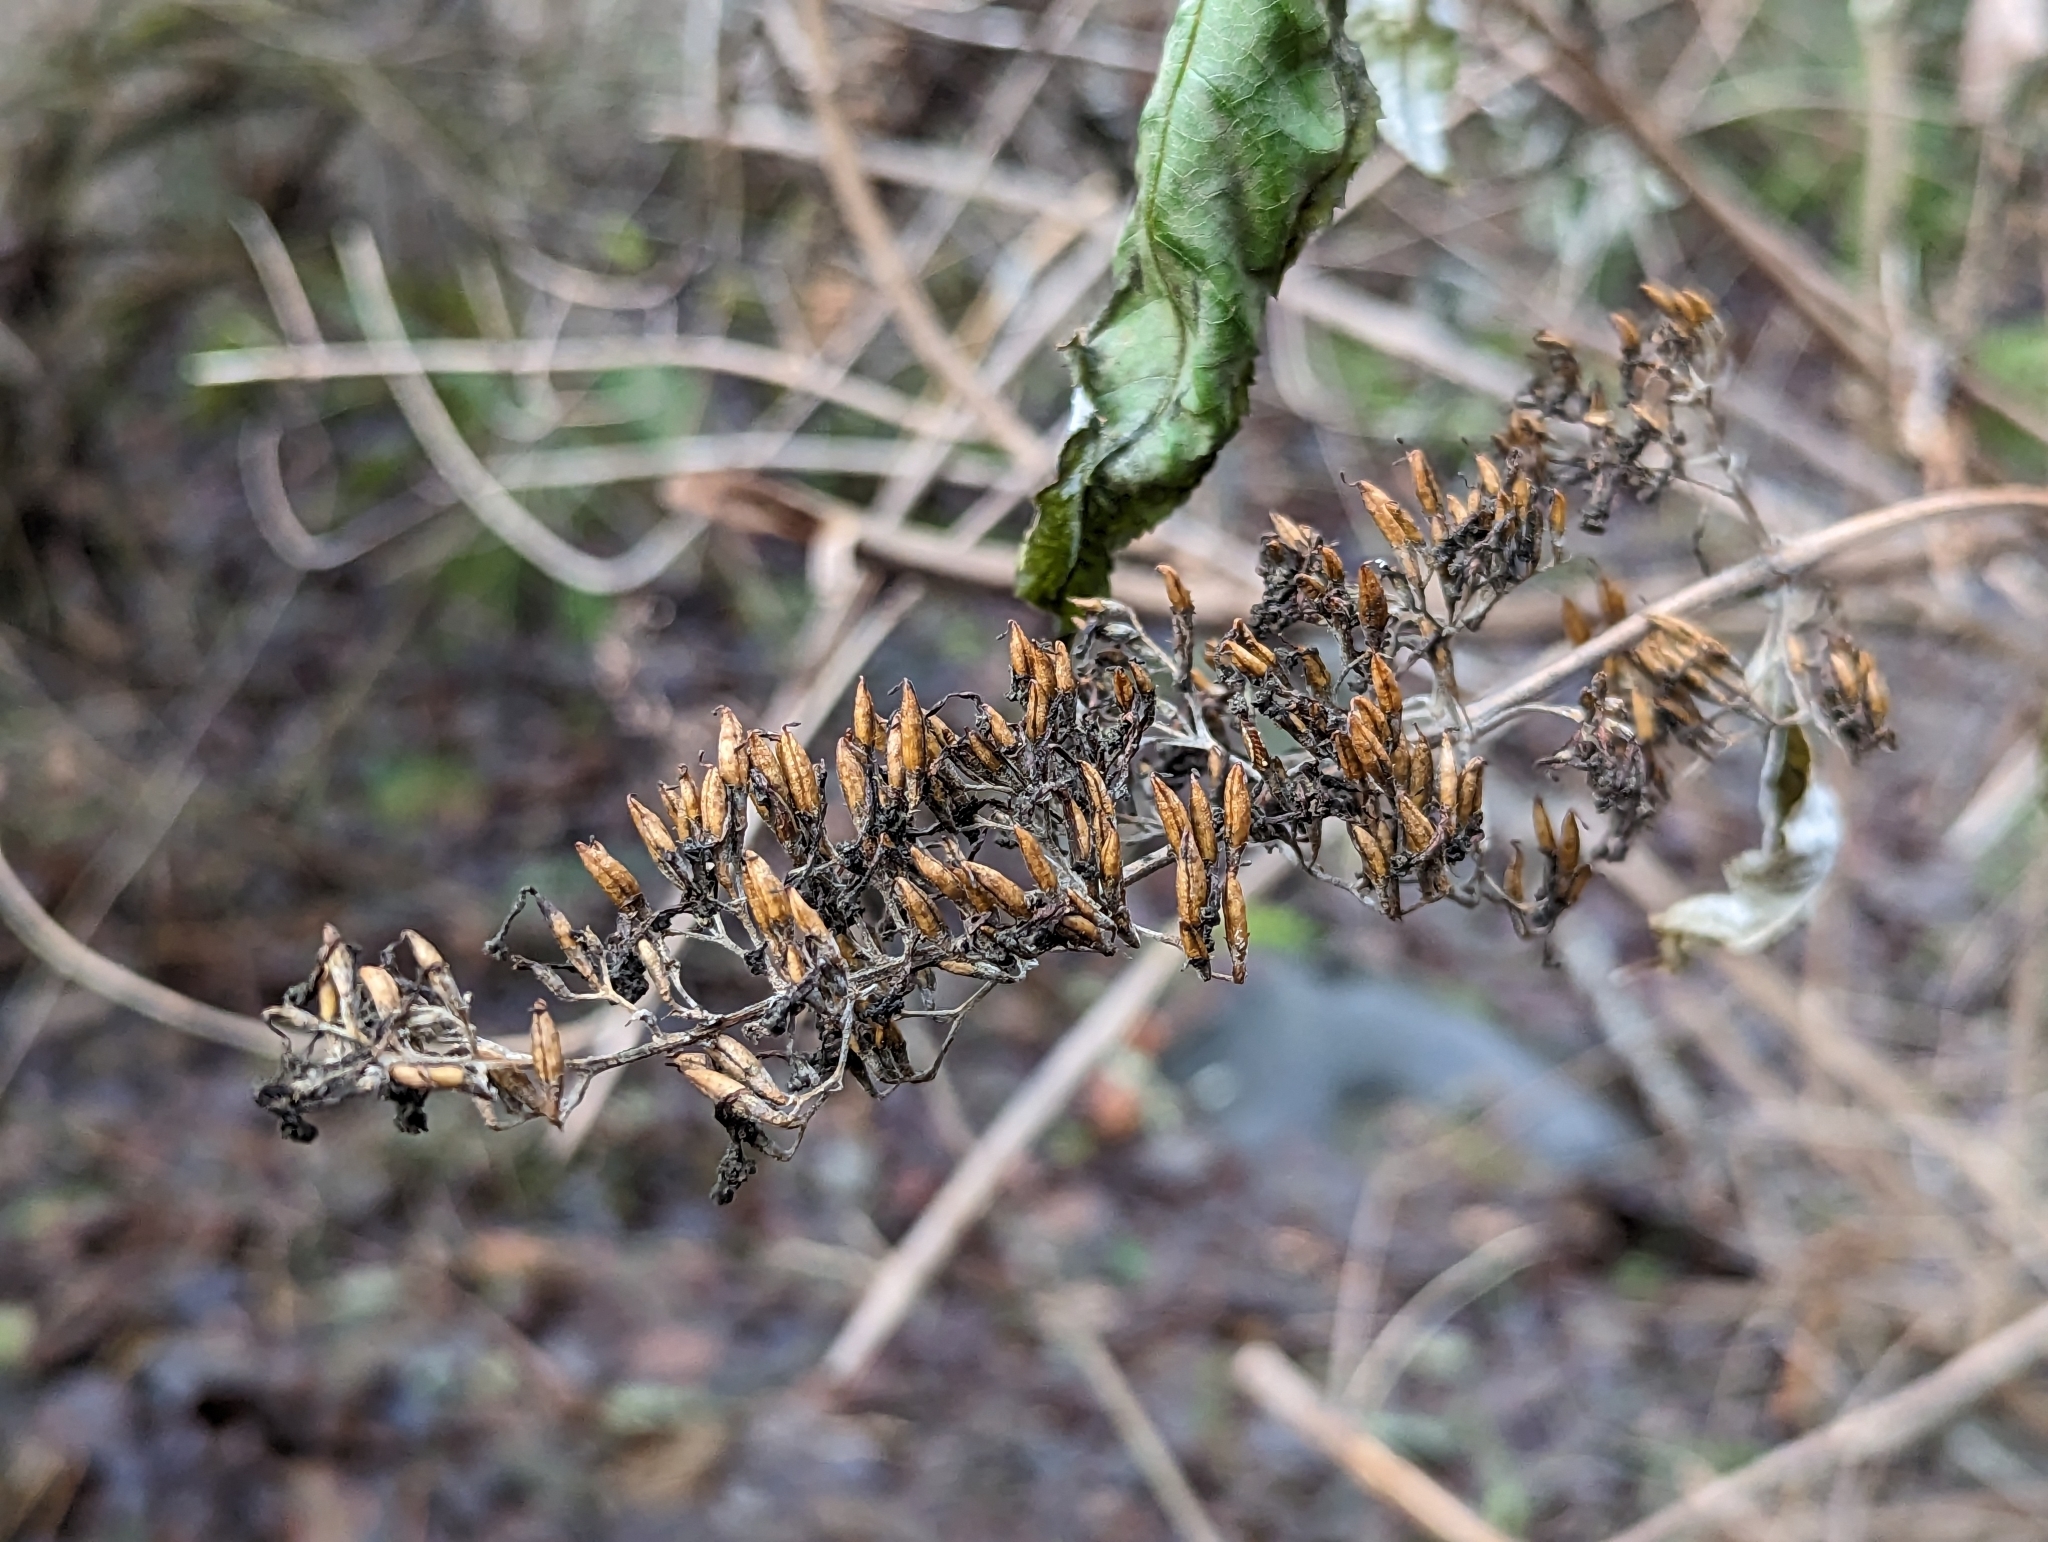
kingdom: Plantae
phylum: Tracheophyta
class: Magnoliopsida
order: Lamiales
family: Scrophulariaceae
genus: Buddleja
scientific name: Buddleja davidii
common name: Butterfly-bush
